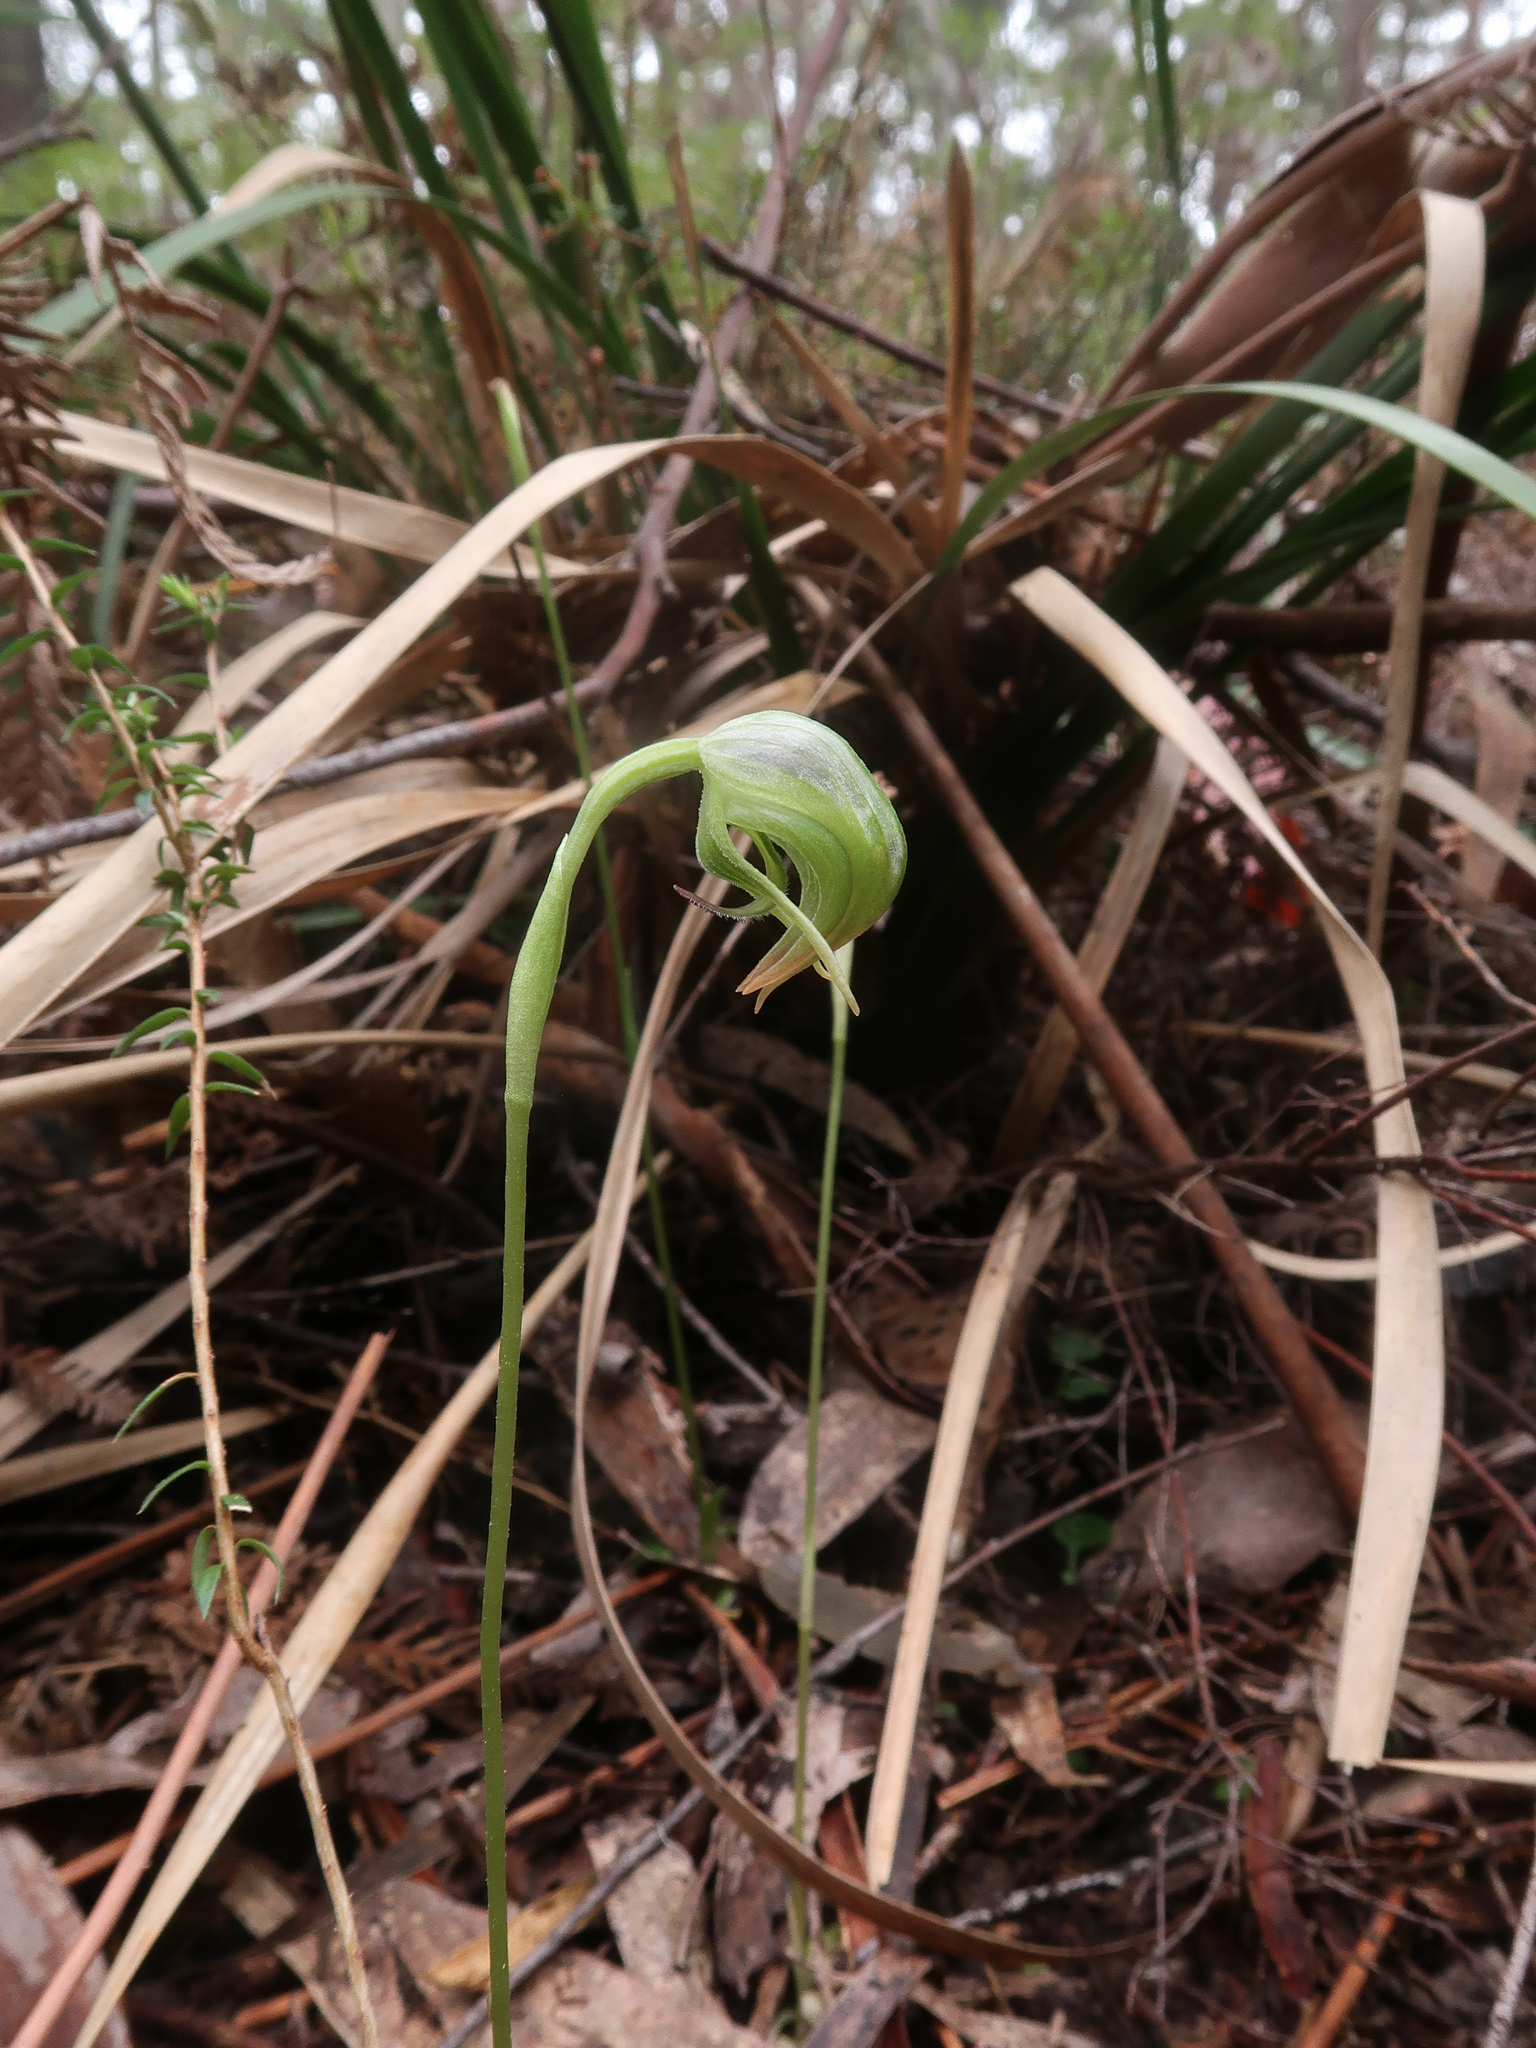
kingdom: Plantae
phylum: Tracheophyta
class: Liliopsida
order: Asparagales
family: Orchidaceae
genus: Pterostylis
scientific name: Pterostylis nutans
